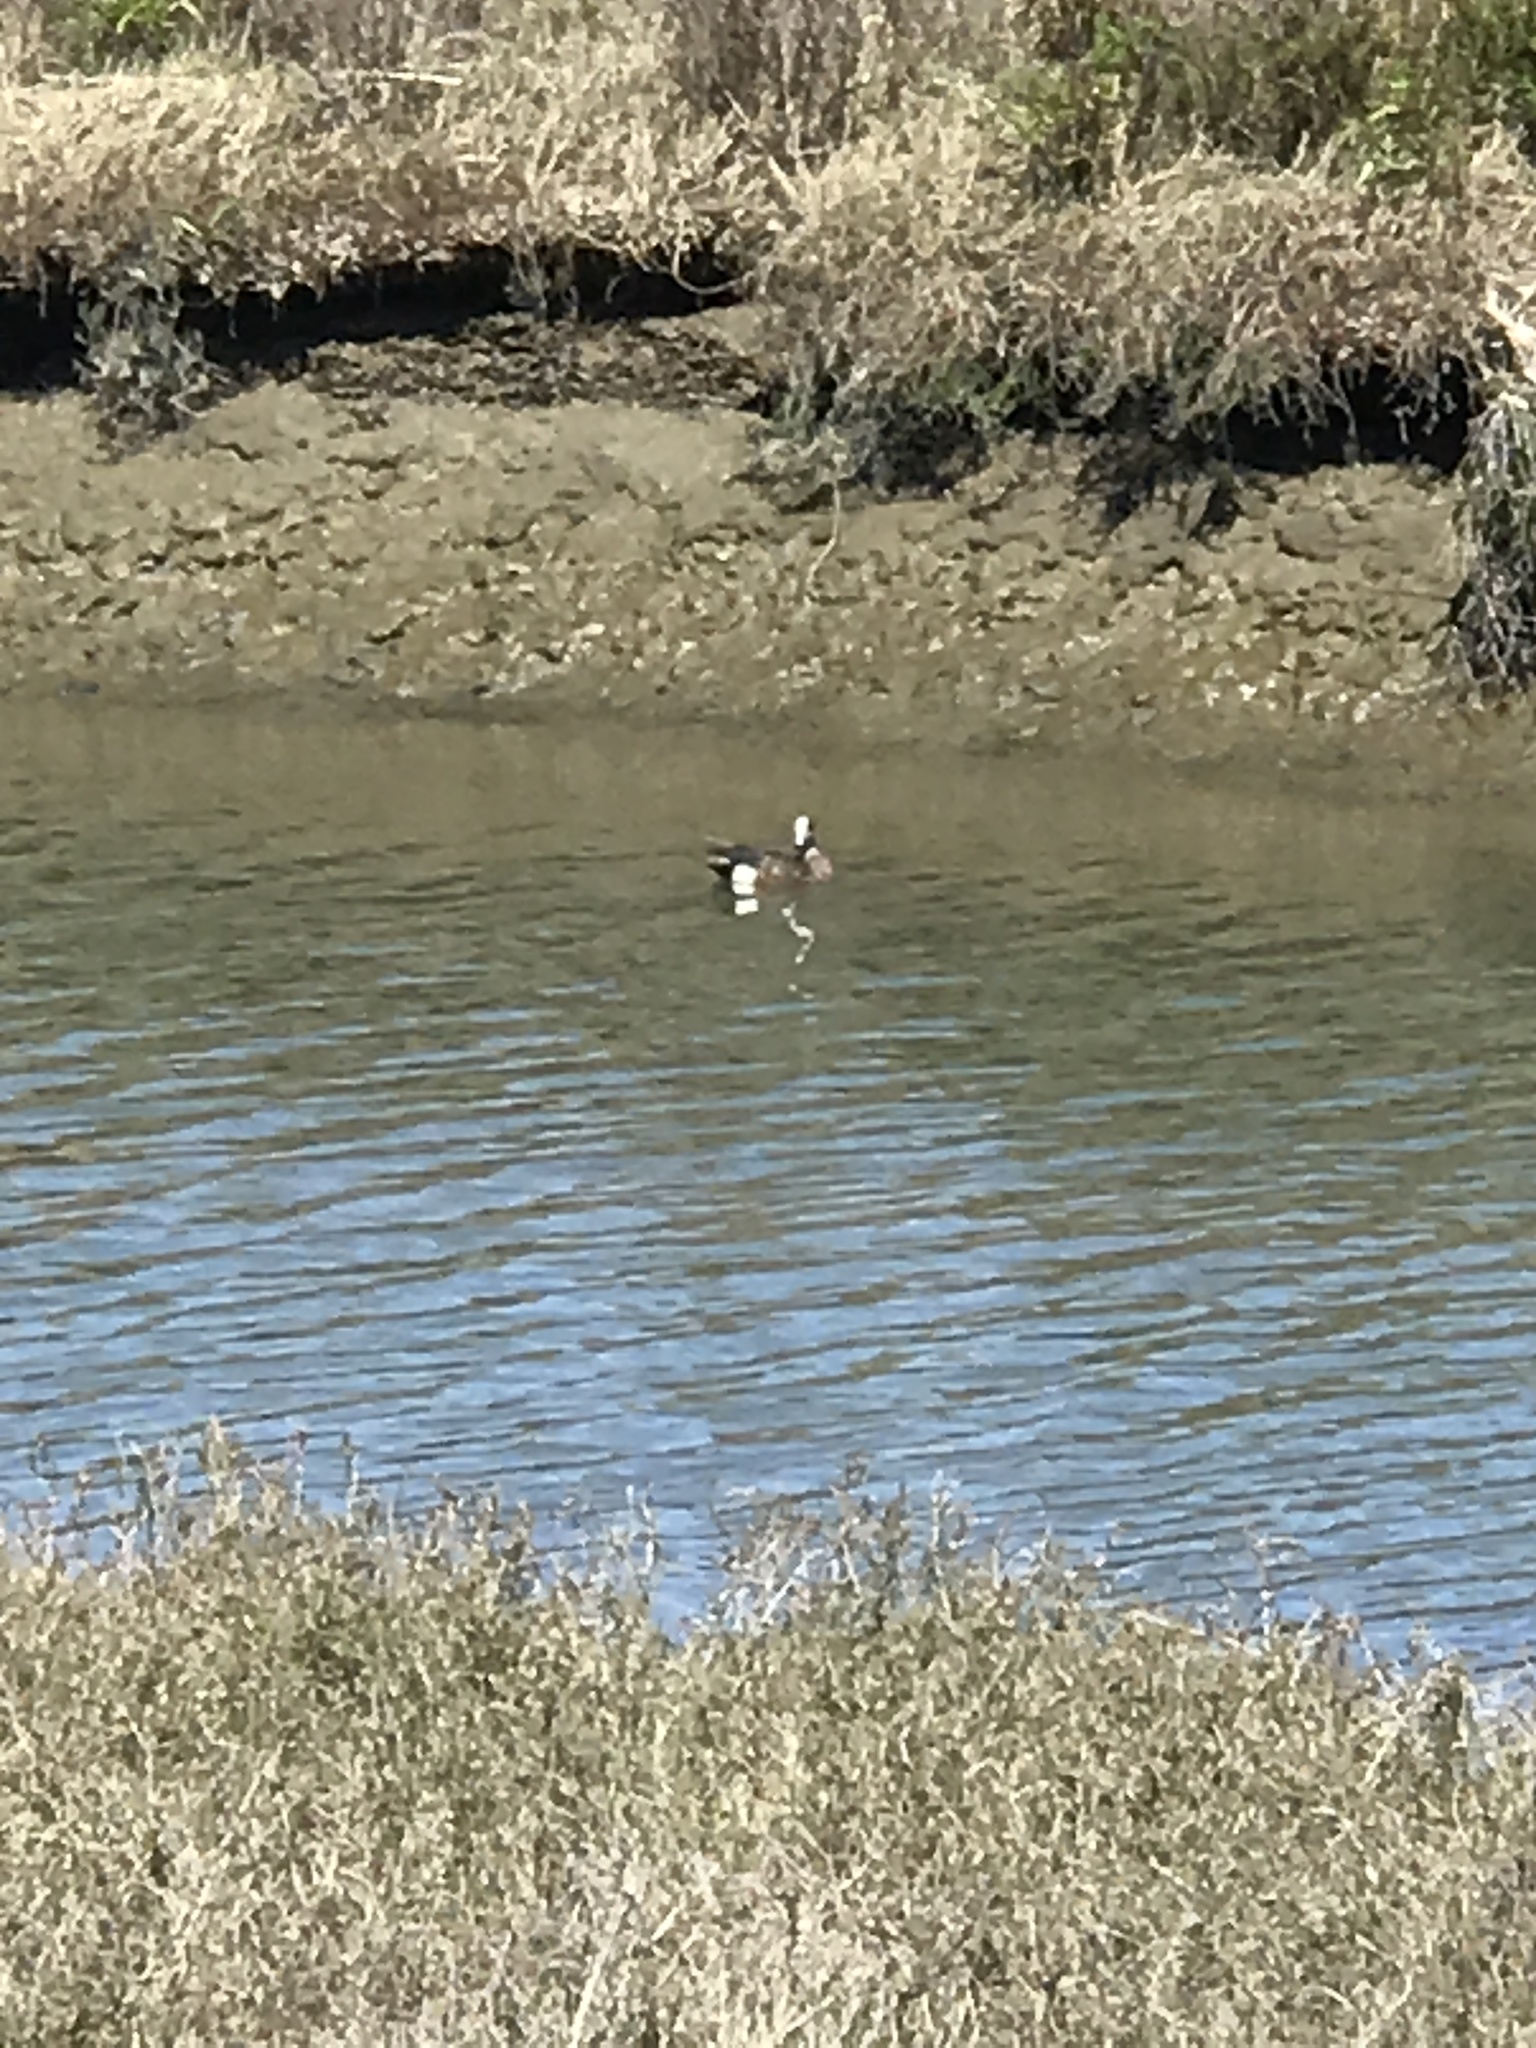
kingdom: Animalia
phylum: Chordata
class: Aves
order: Anseriformes
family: Anatidae
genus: Mareca
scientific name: Mareca americana
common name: American wigeon
